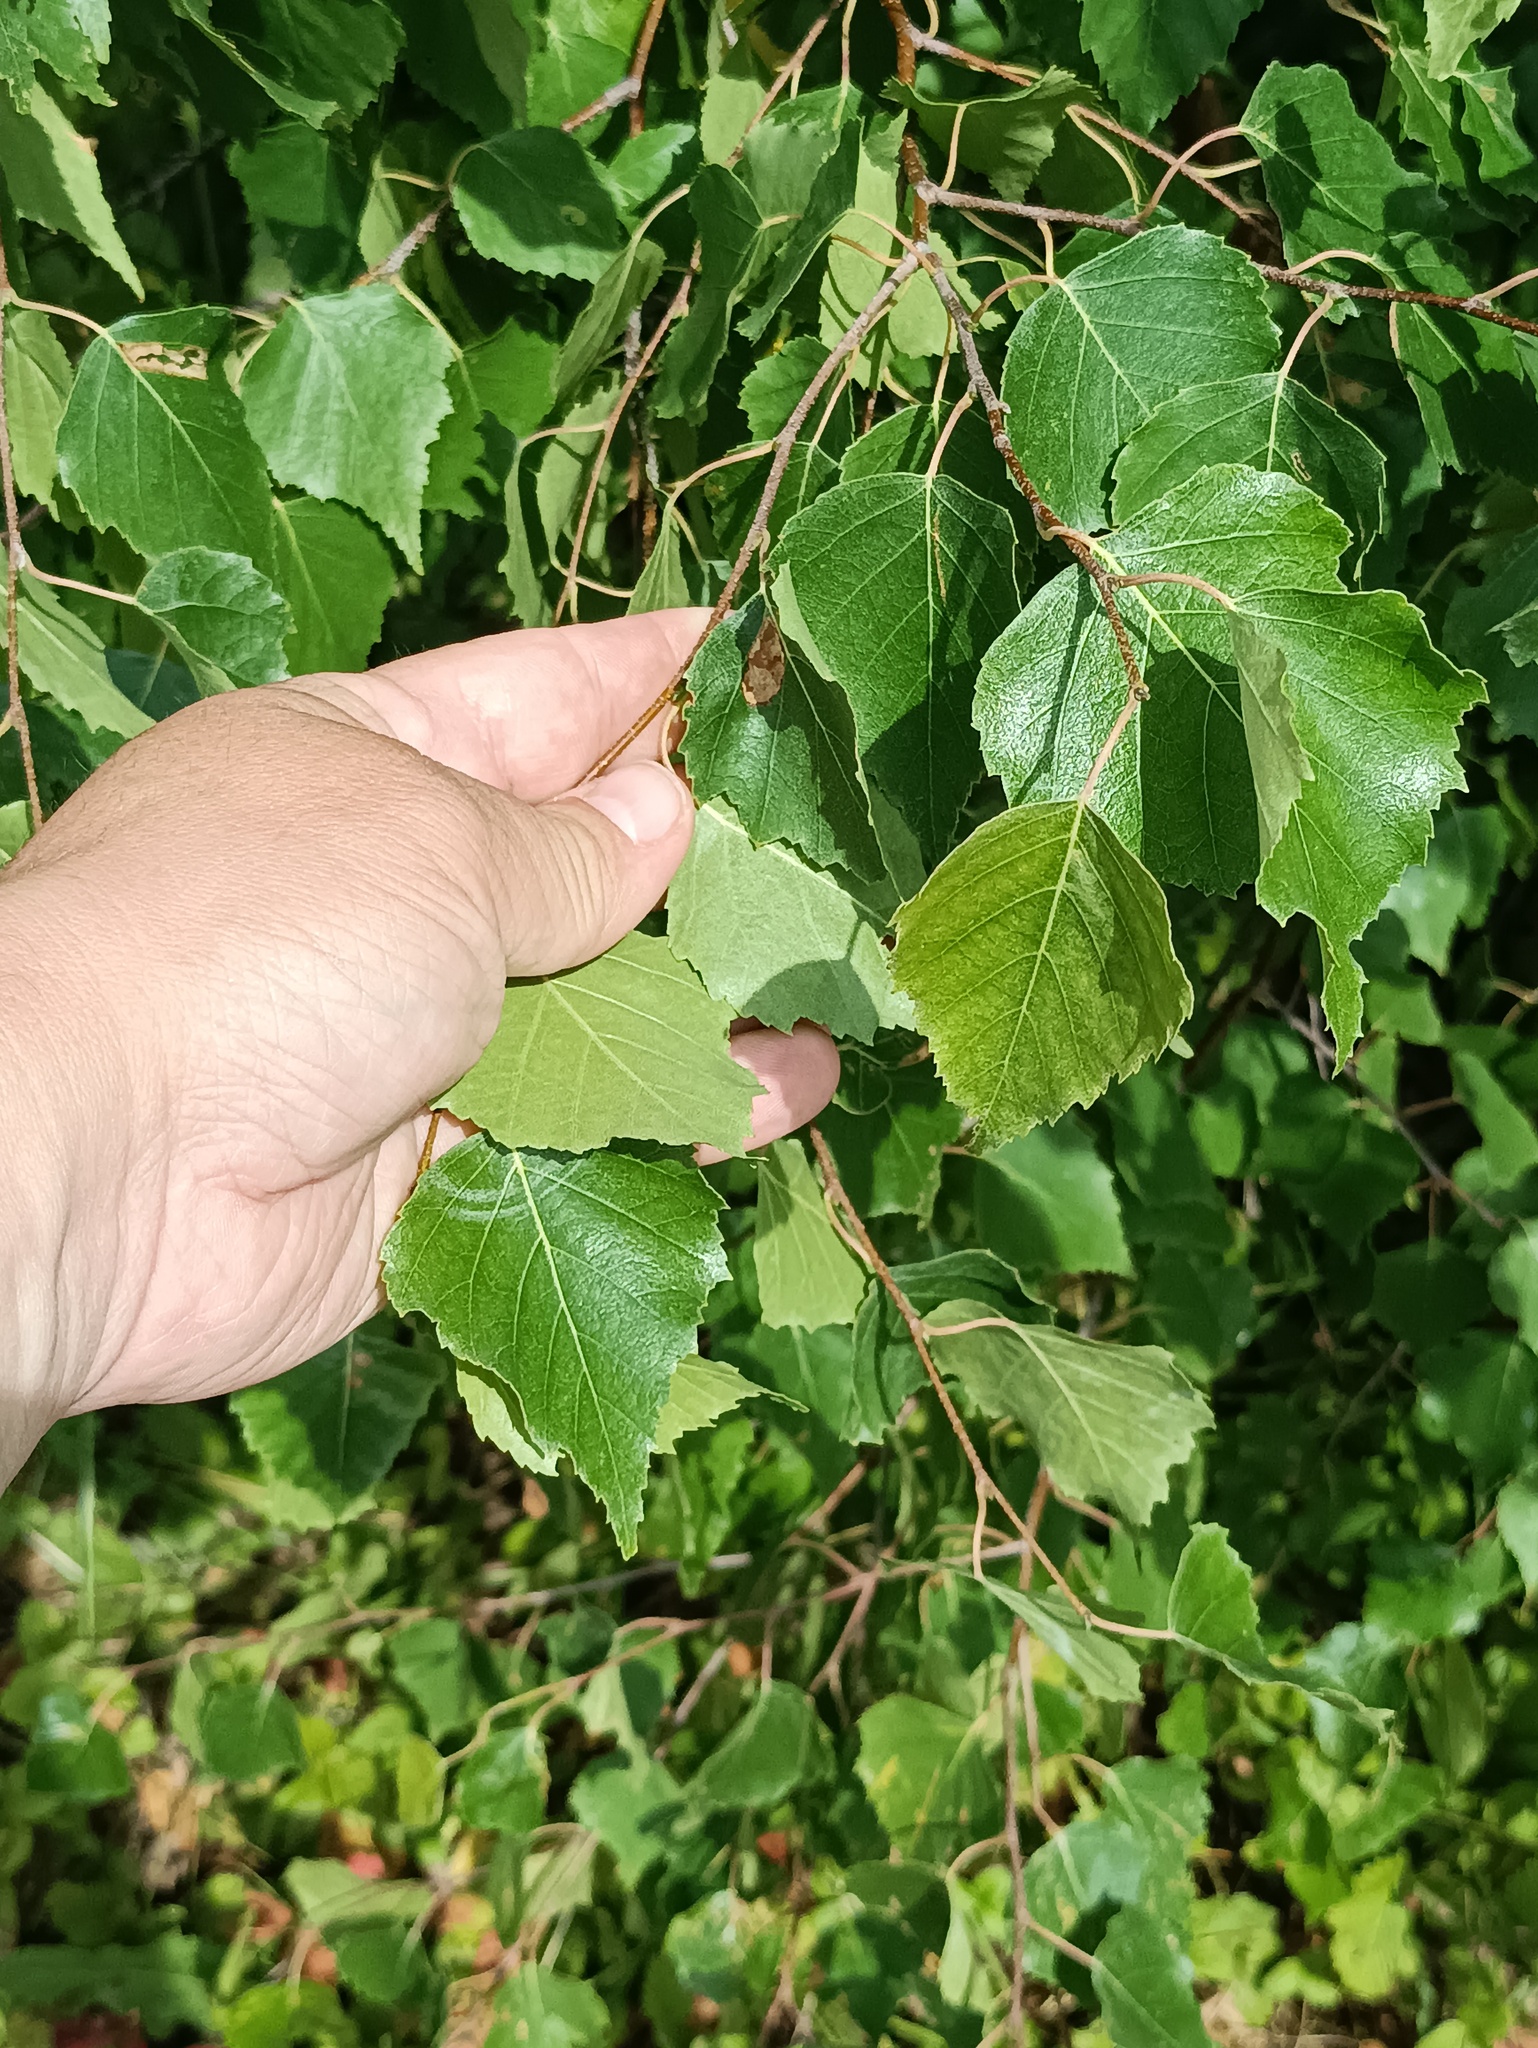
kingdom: Plantae
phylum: Tracheophyta
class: Magnoliopsida
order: Fagales
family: Betulaceae
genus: Betula
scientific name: Betula pendula
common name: Silver birch
